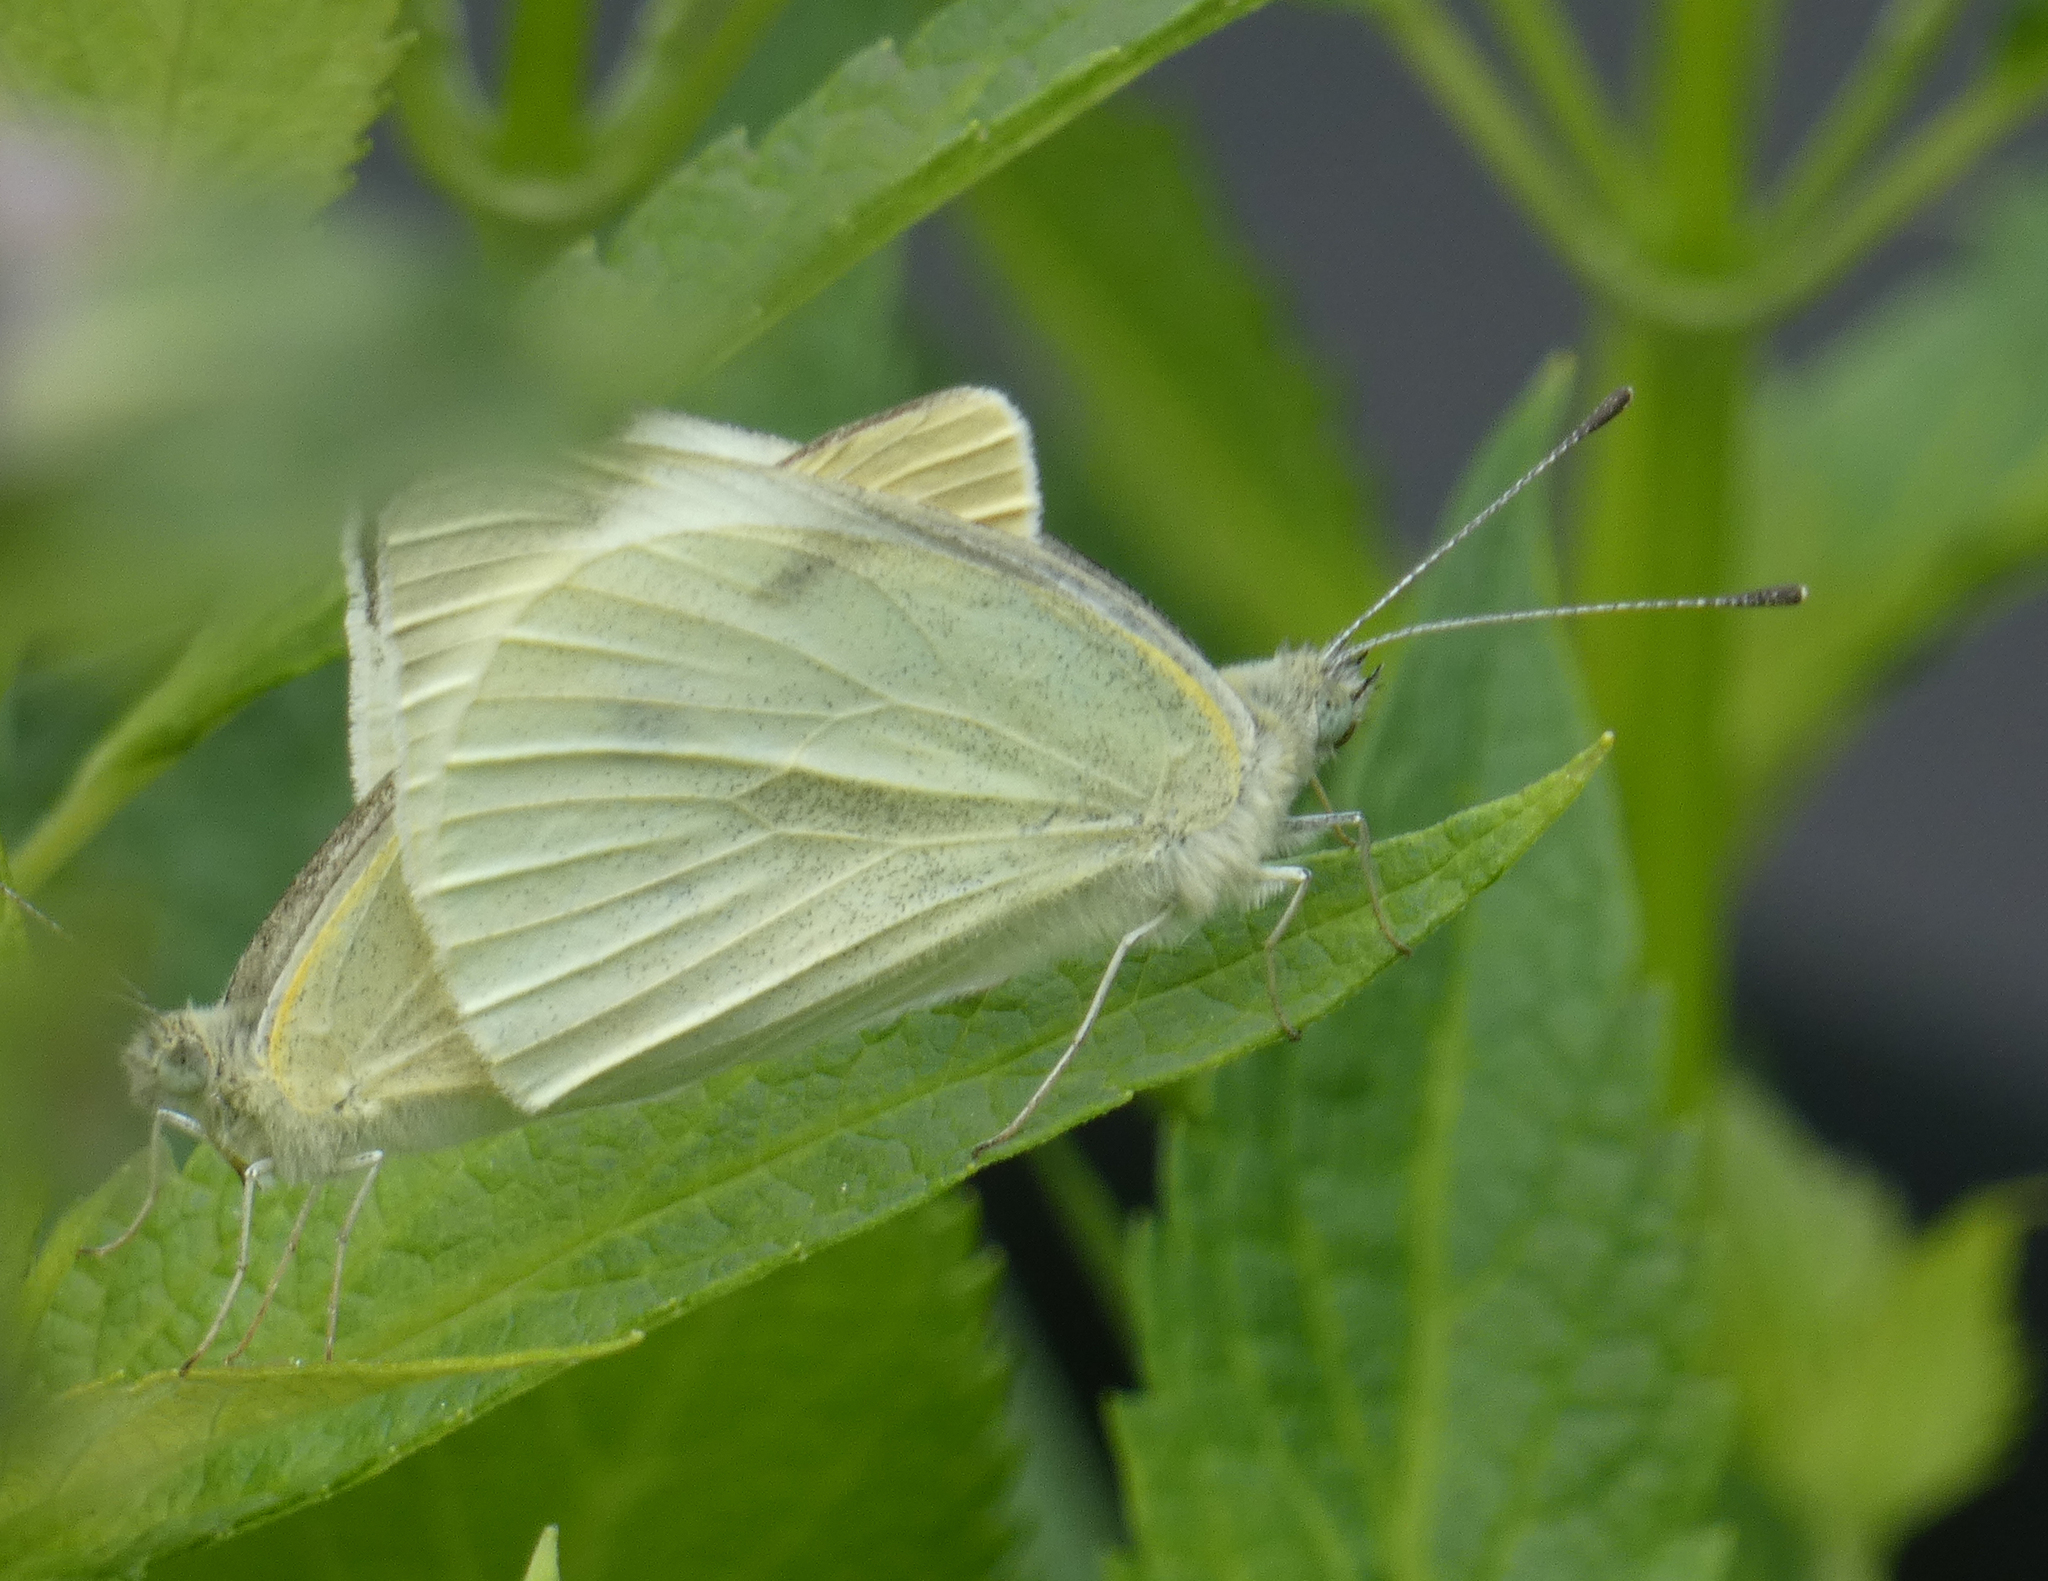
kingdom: Animalia
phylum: Arthropoda
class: Insecta
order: Lepidoptera
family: Pieridae
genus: Pieris
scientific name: Pieris rapae
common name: Small white
